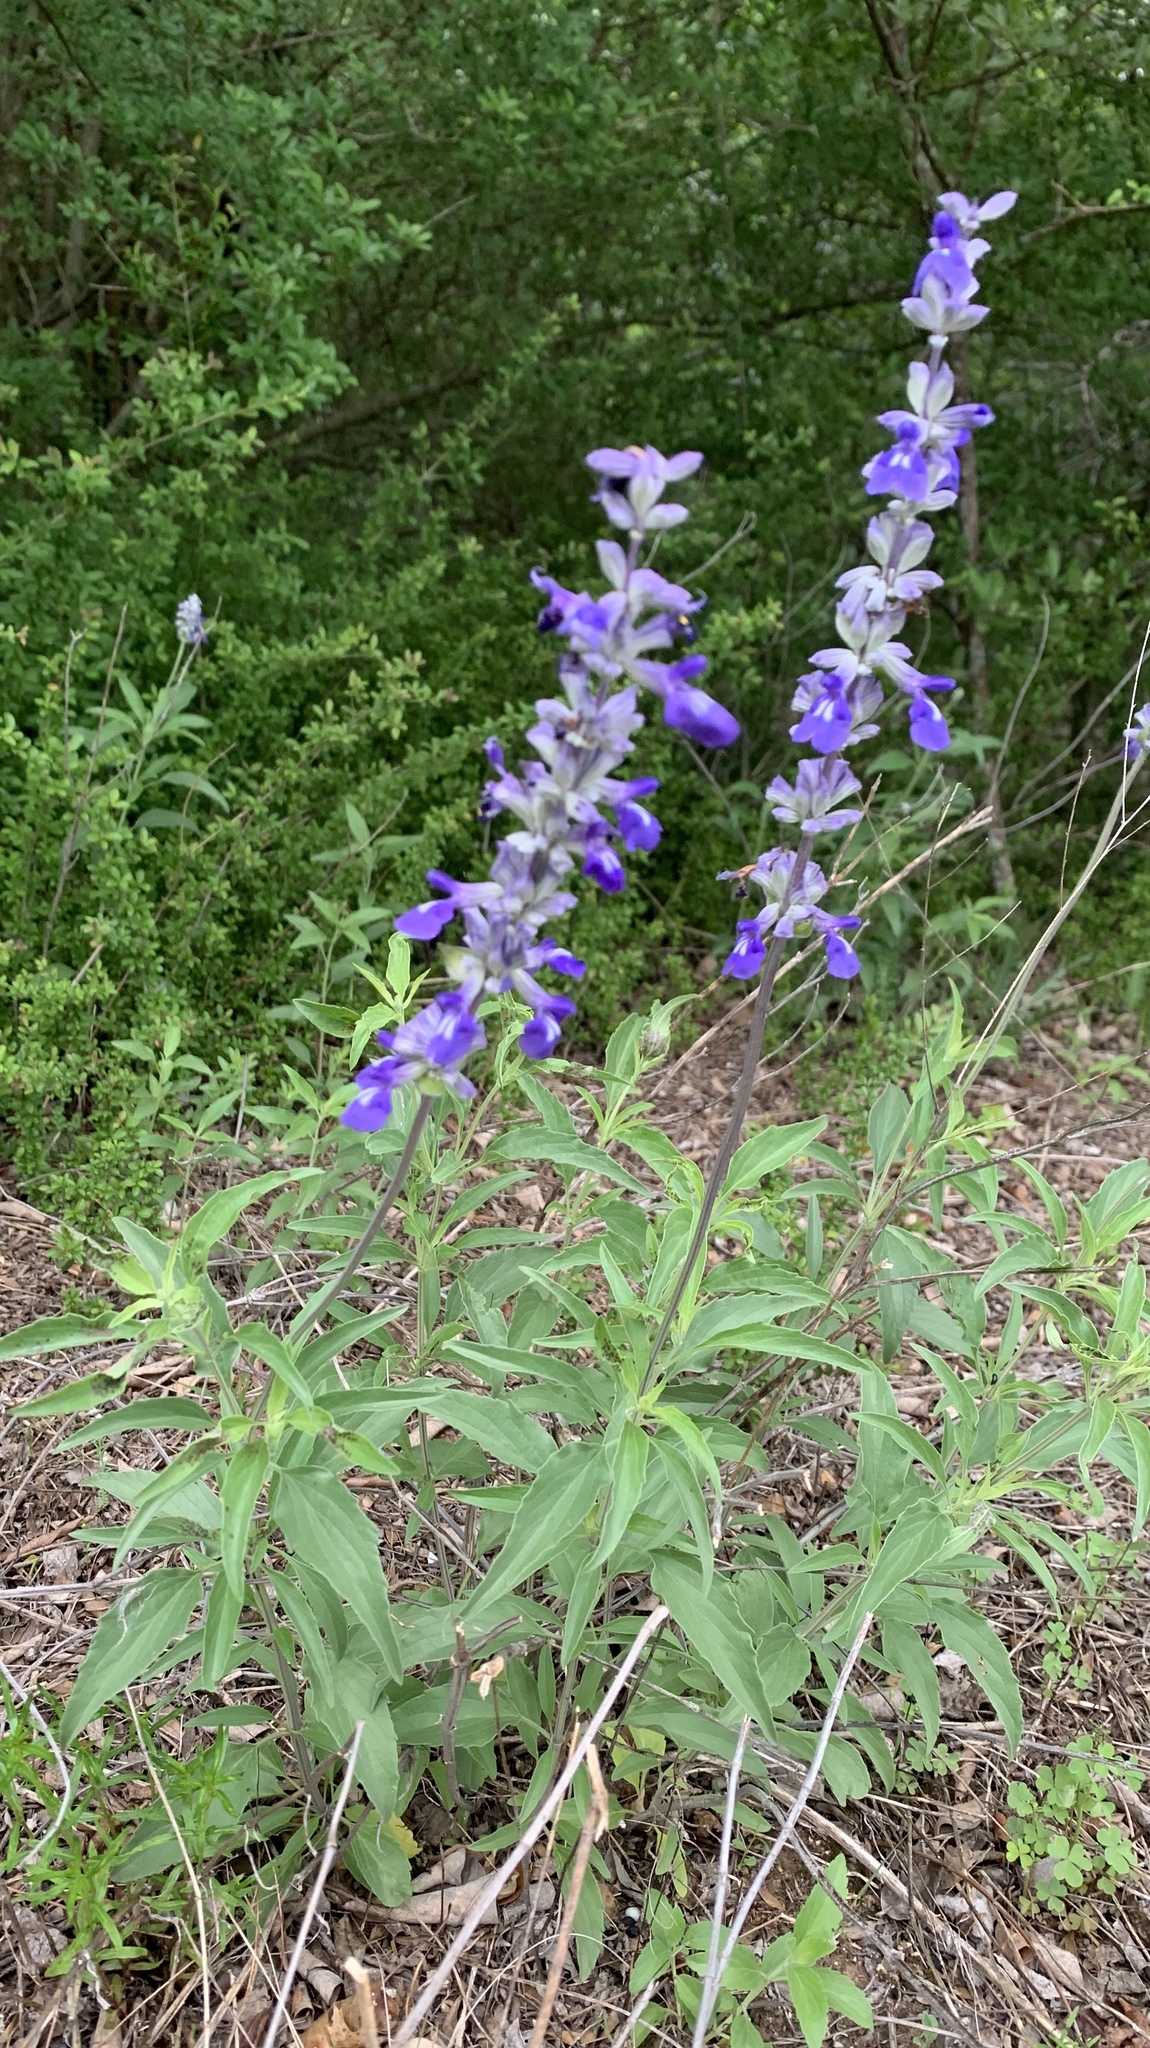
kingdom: Plantae
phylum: Tracheophyta
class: Magnoliopsida
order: Lamiales
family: Lamiaceae
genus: Salvia
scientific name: Salvia farinacea
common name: Mealy sage
